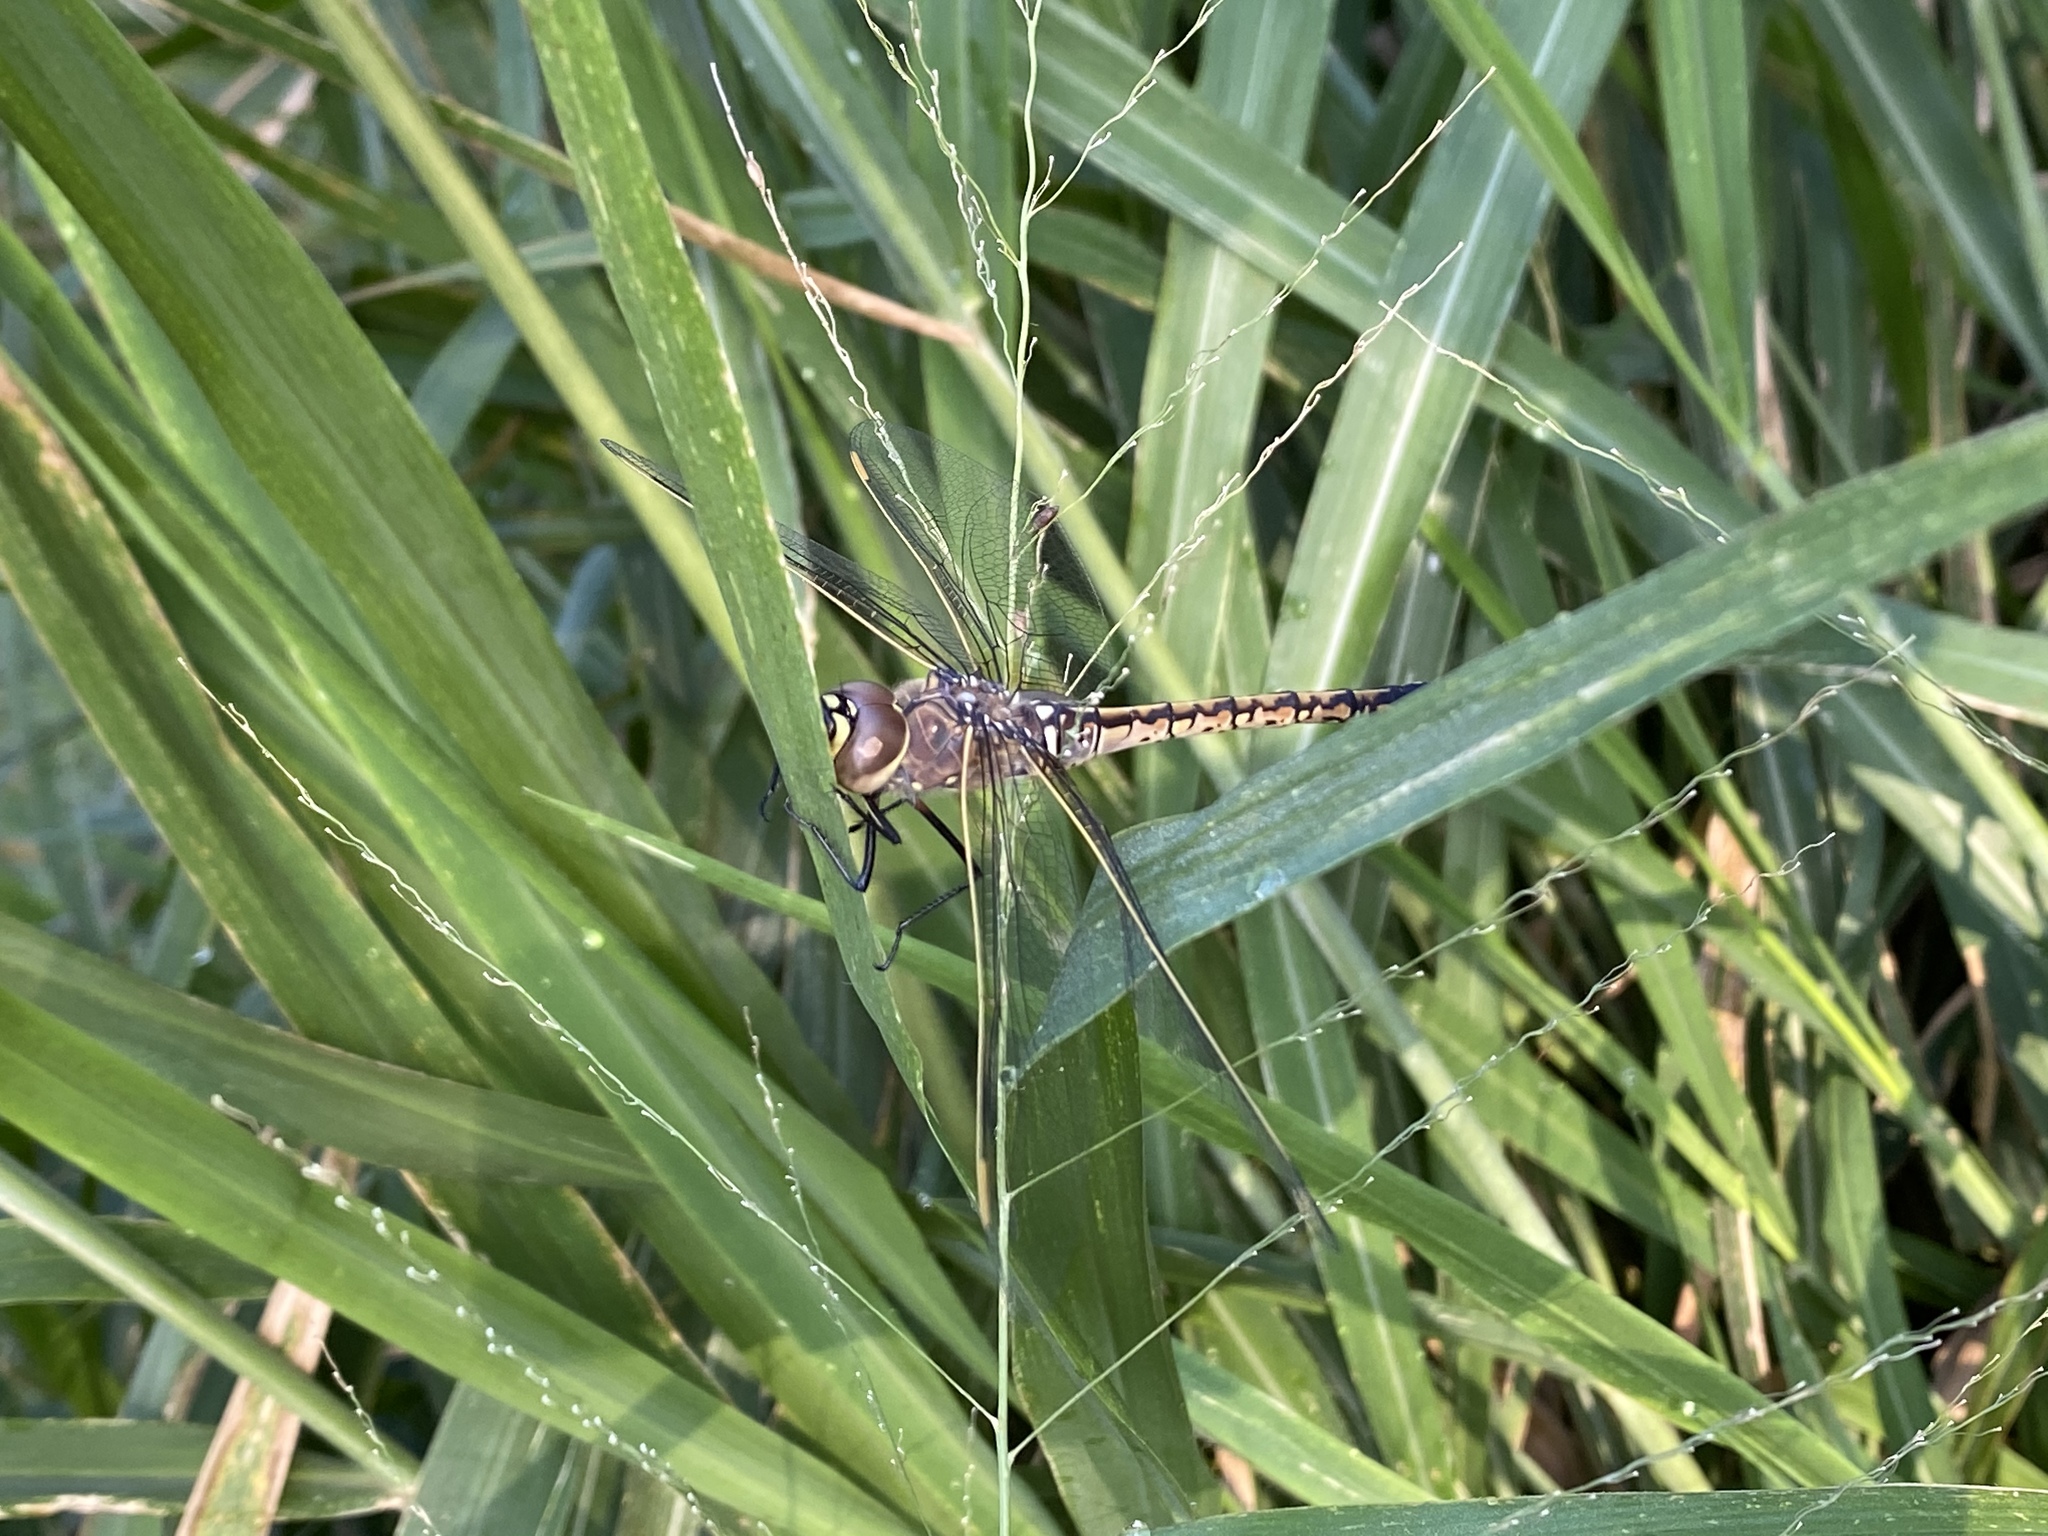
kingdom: Animalia
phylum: Arthropoda
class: Insecta
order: Odonata
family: Aeshnidae
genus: Anax
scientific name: Anax papuensis
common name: Australian emperor
